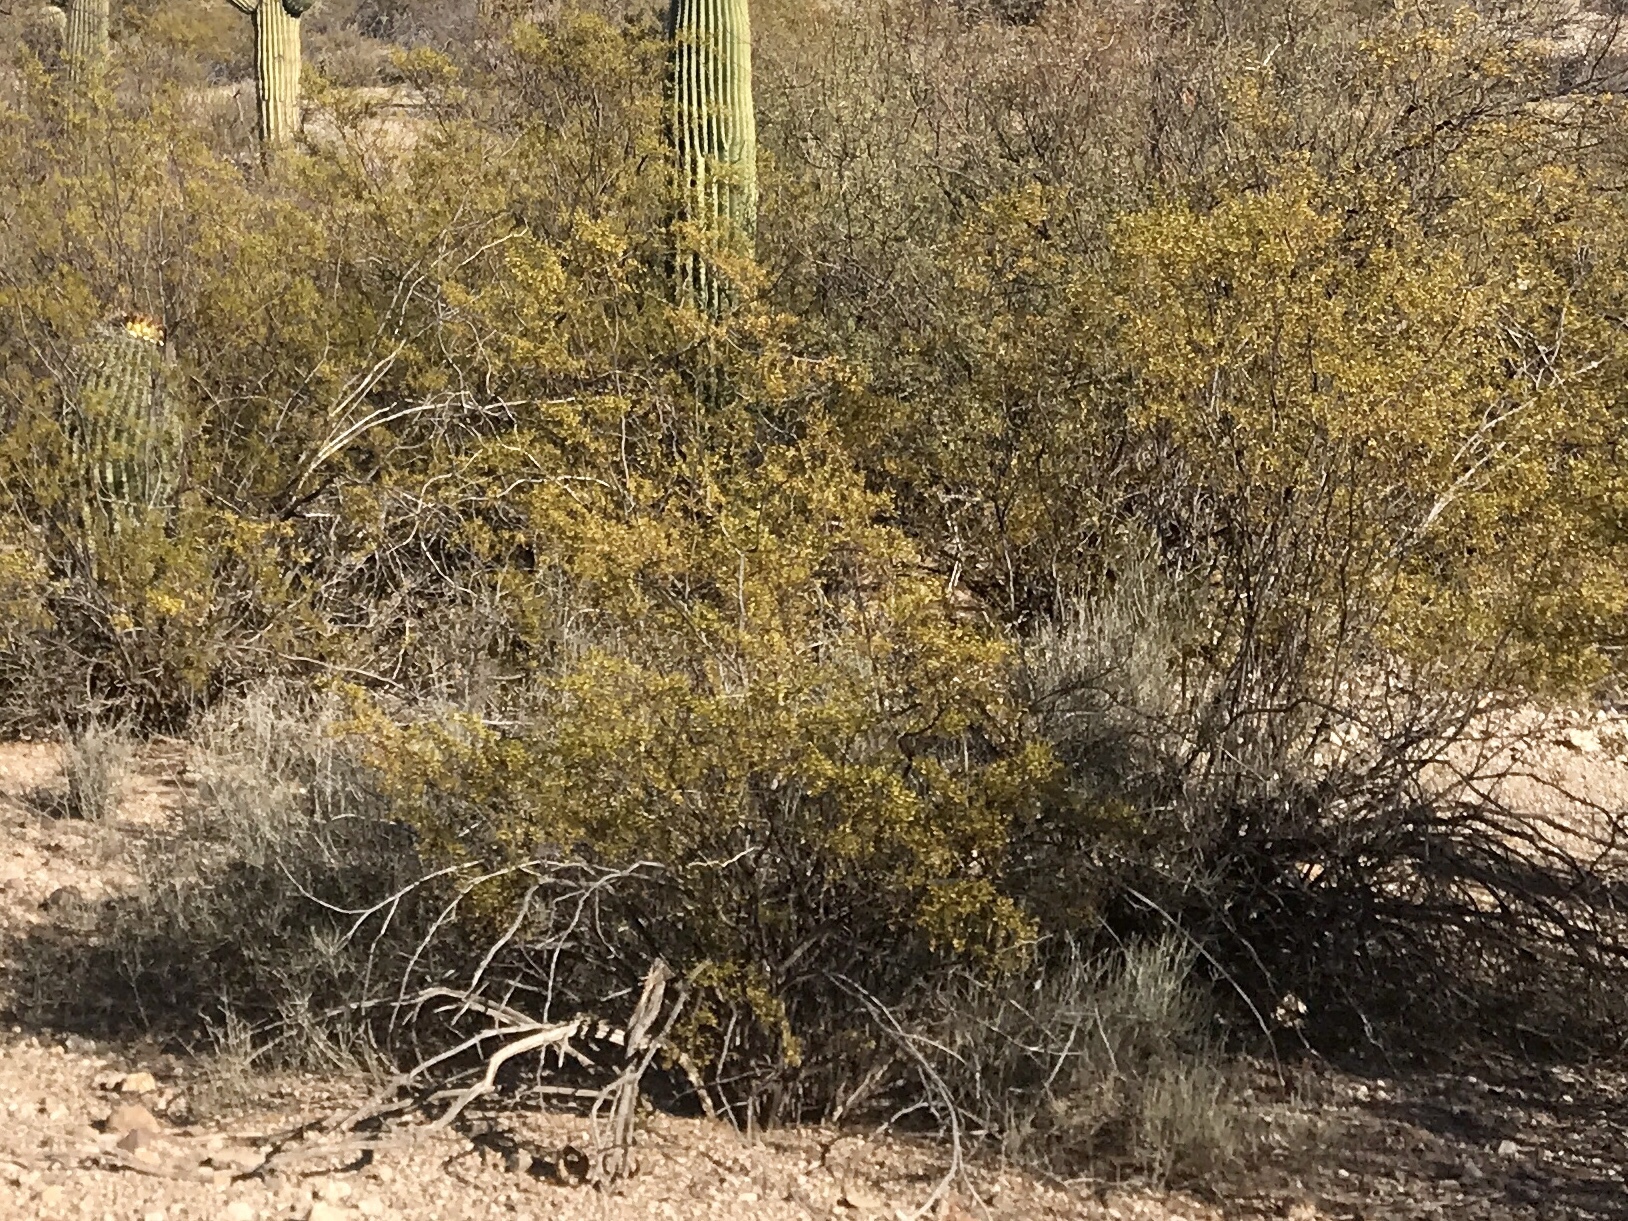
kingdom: Plantae
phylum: Tracheophyta
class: Magnoliopsida
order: Zygophyllales
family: Zygophyllaceae
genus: Larrea
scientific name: Larrea tridentata
